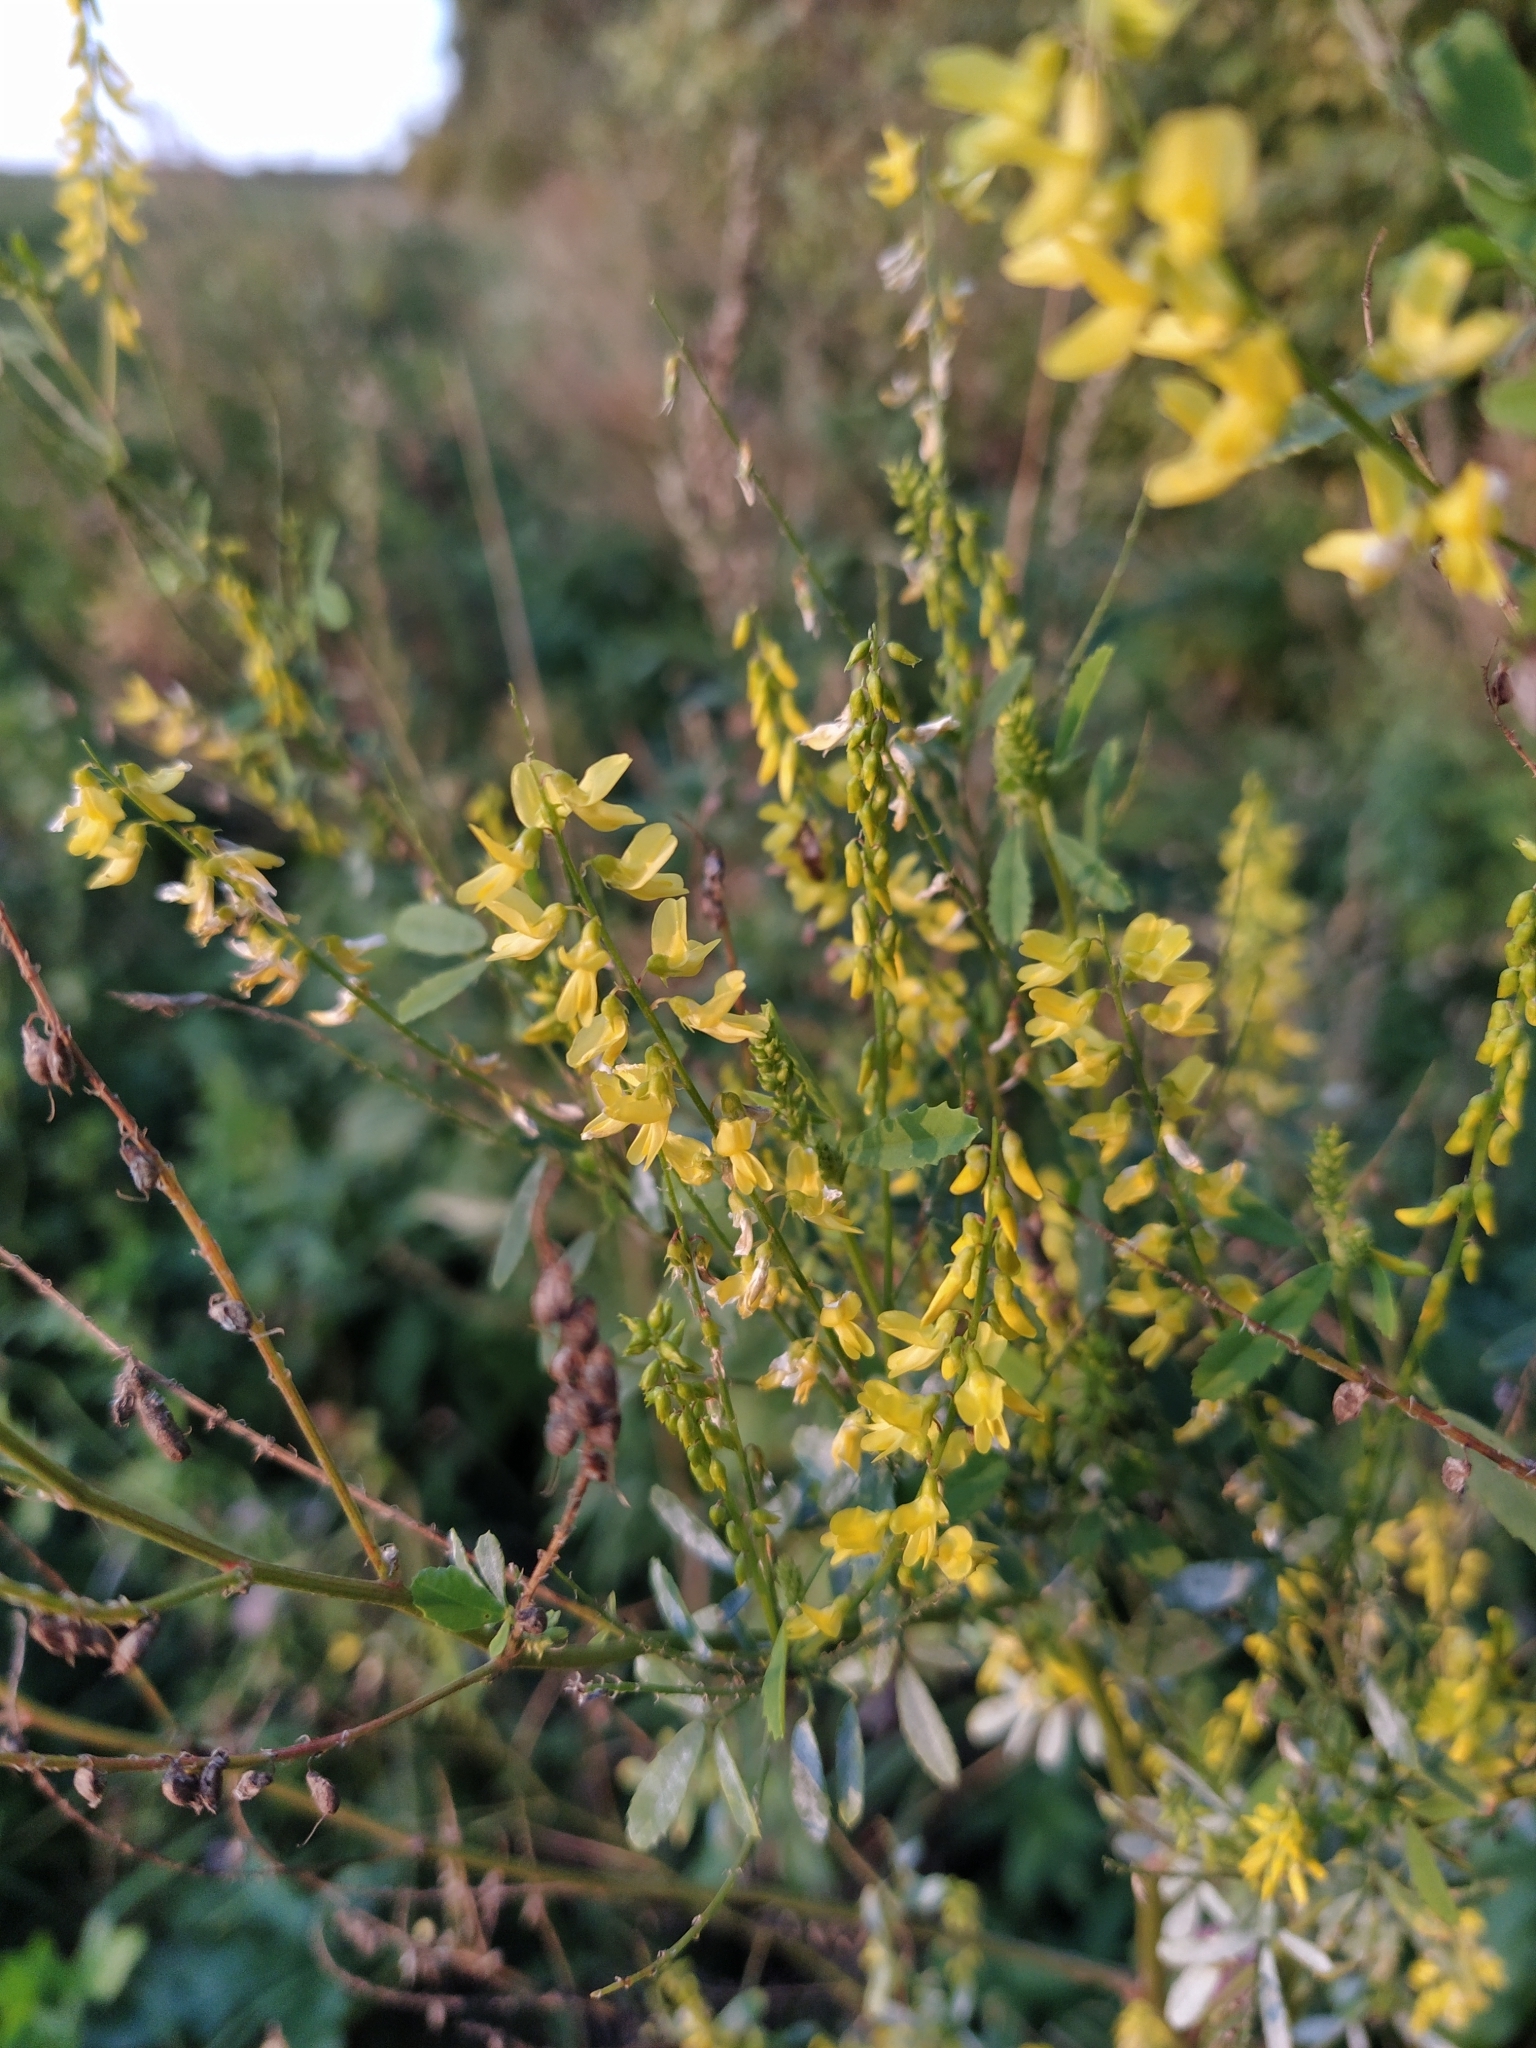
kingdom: Plantae
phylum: Tracheophyta
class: Magnoliopsida
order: Fabales
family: Fabaceae
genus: Melilotus
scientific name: Melilotus officinalis
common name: Sweetclover
